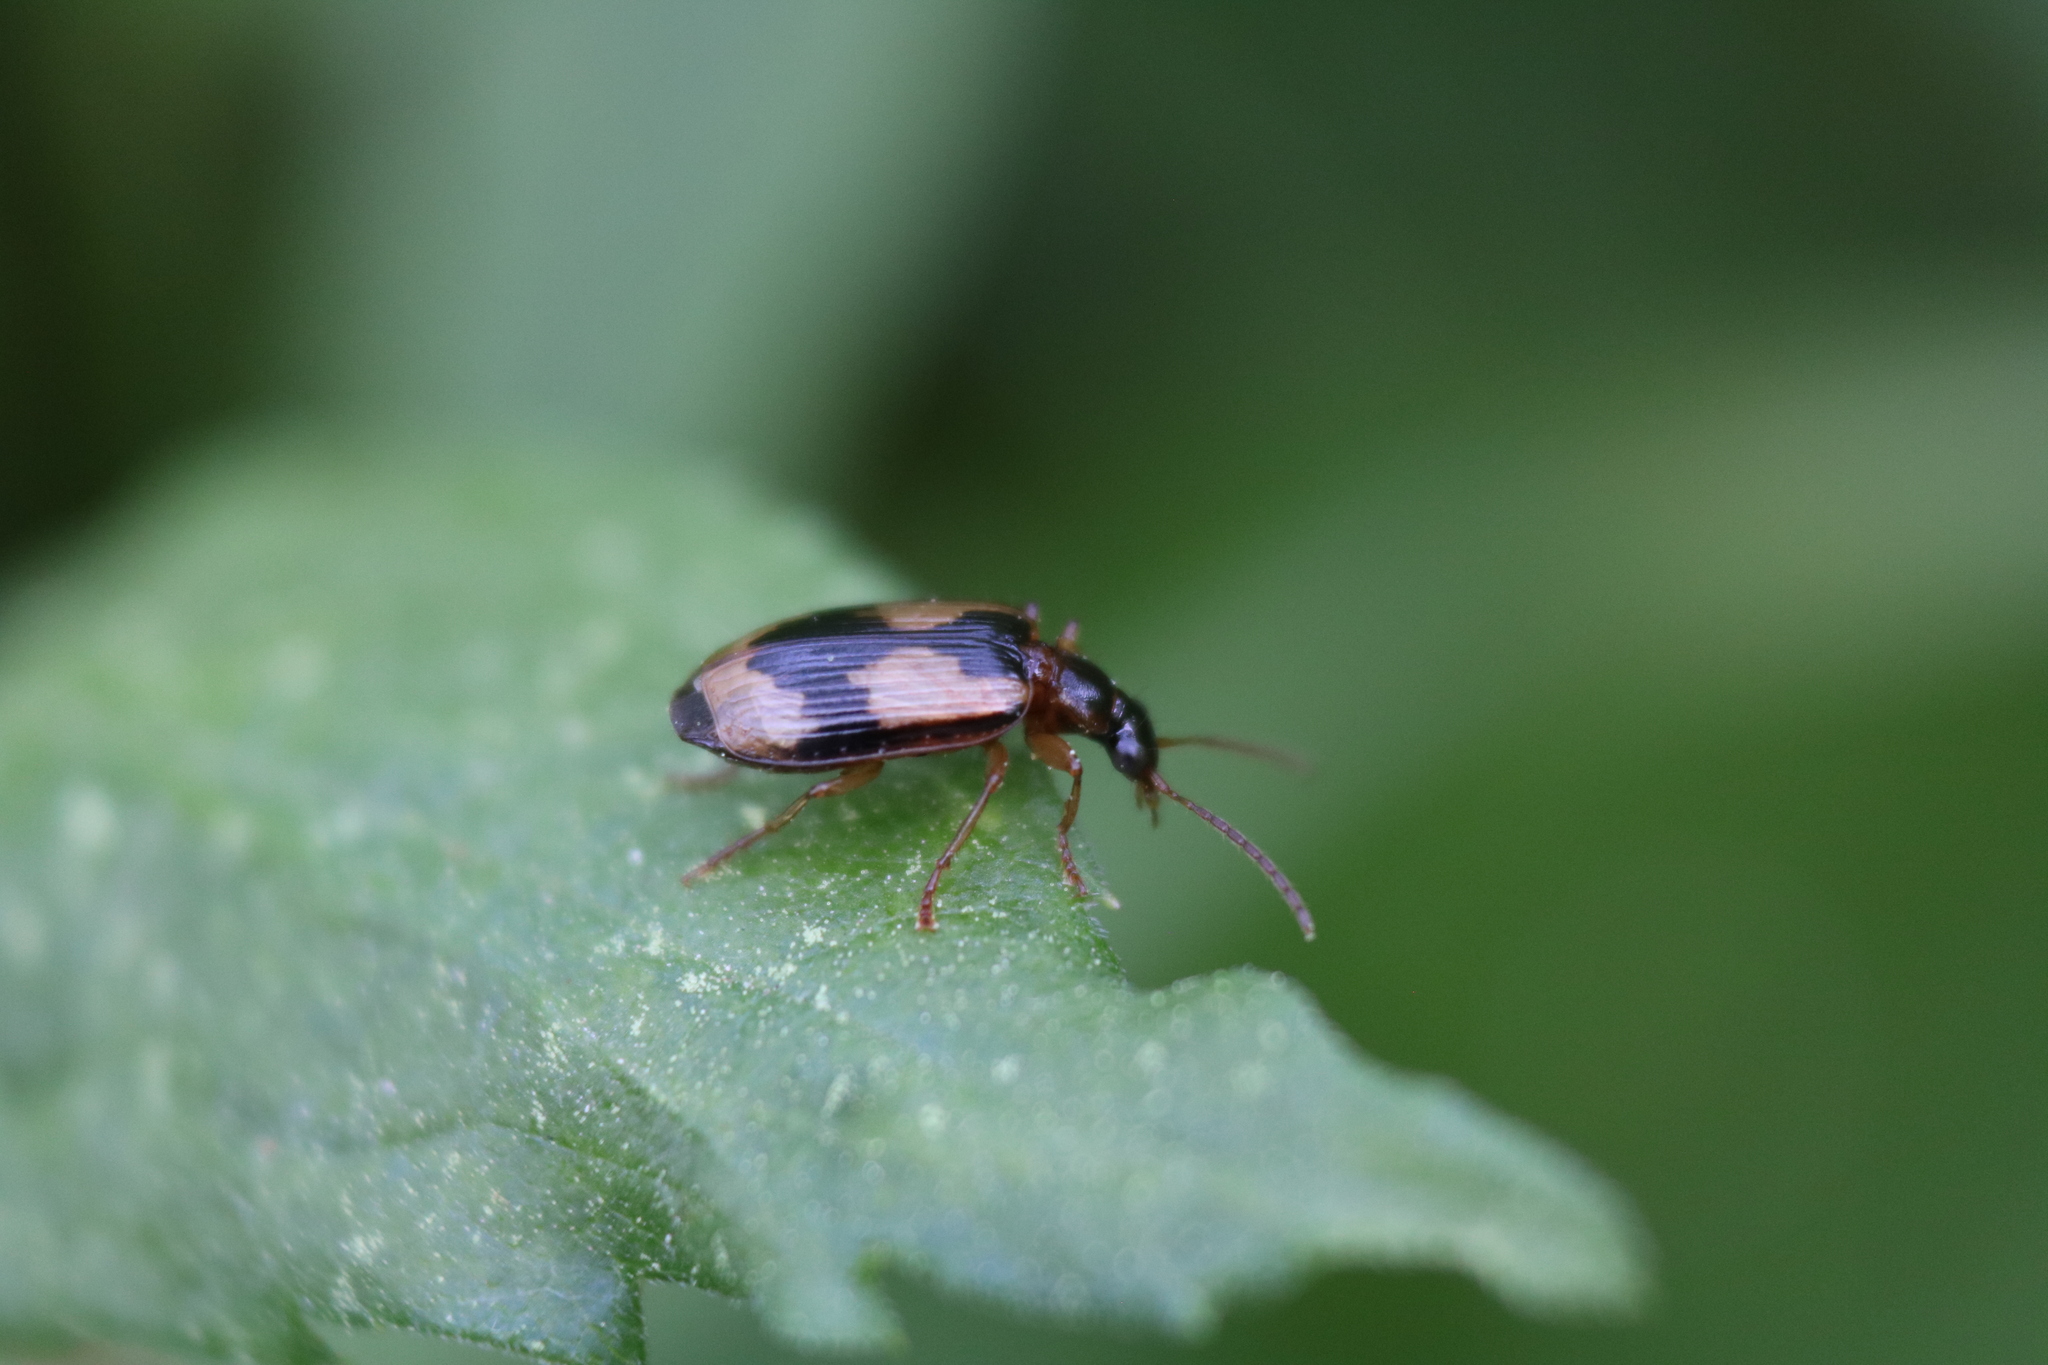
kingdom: Animalia
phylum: Arthropoda
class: Insecta
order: Coleoptera
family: Carabidae
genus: Lebia
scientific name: Lebia fuscata
